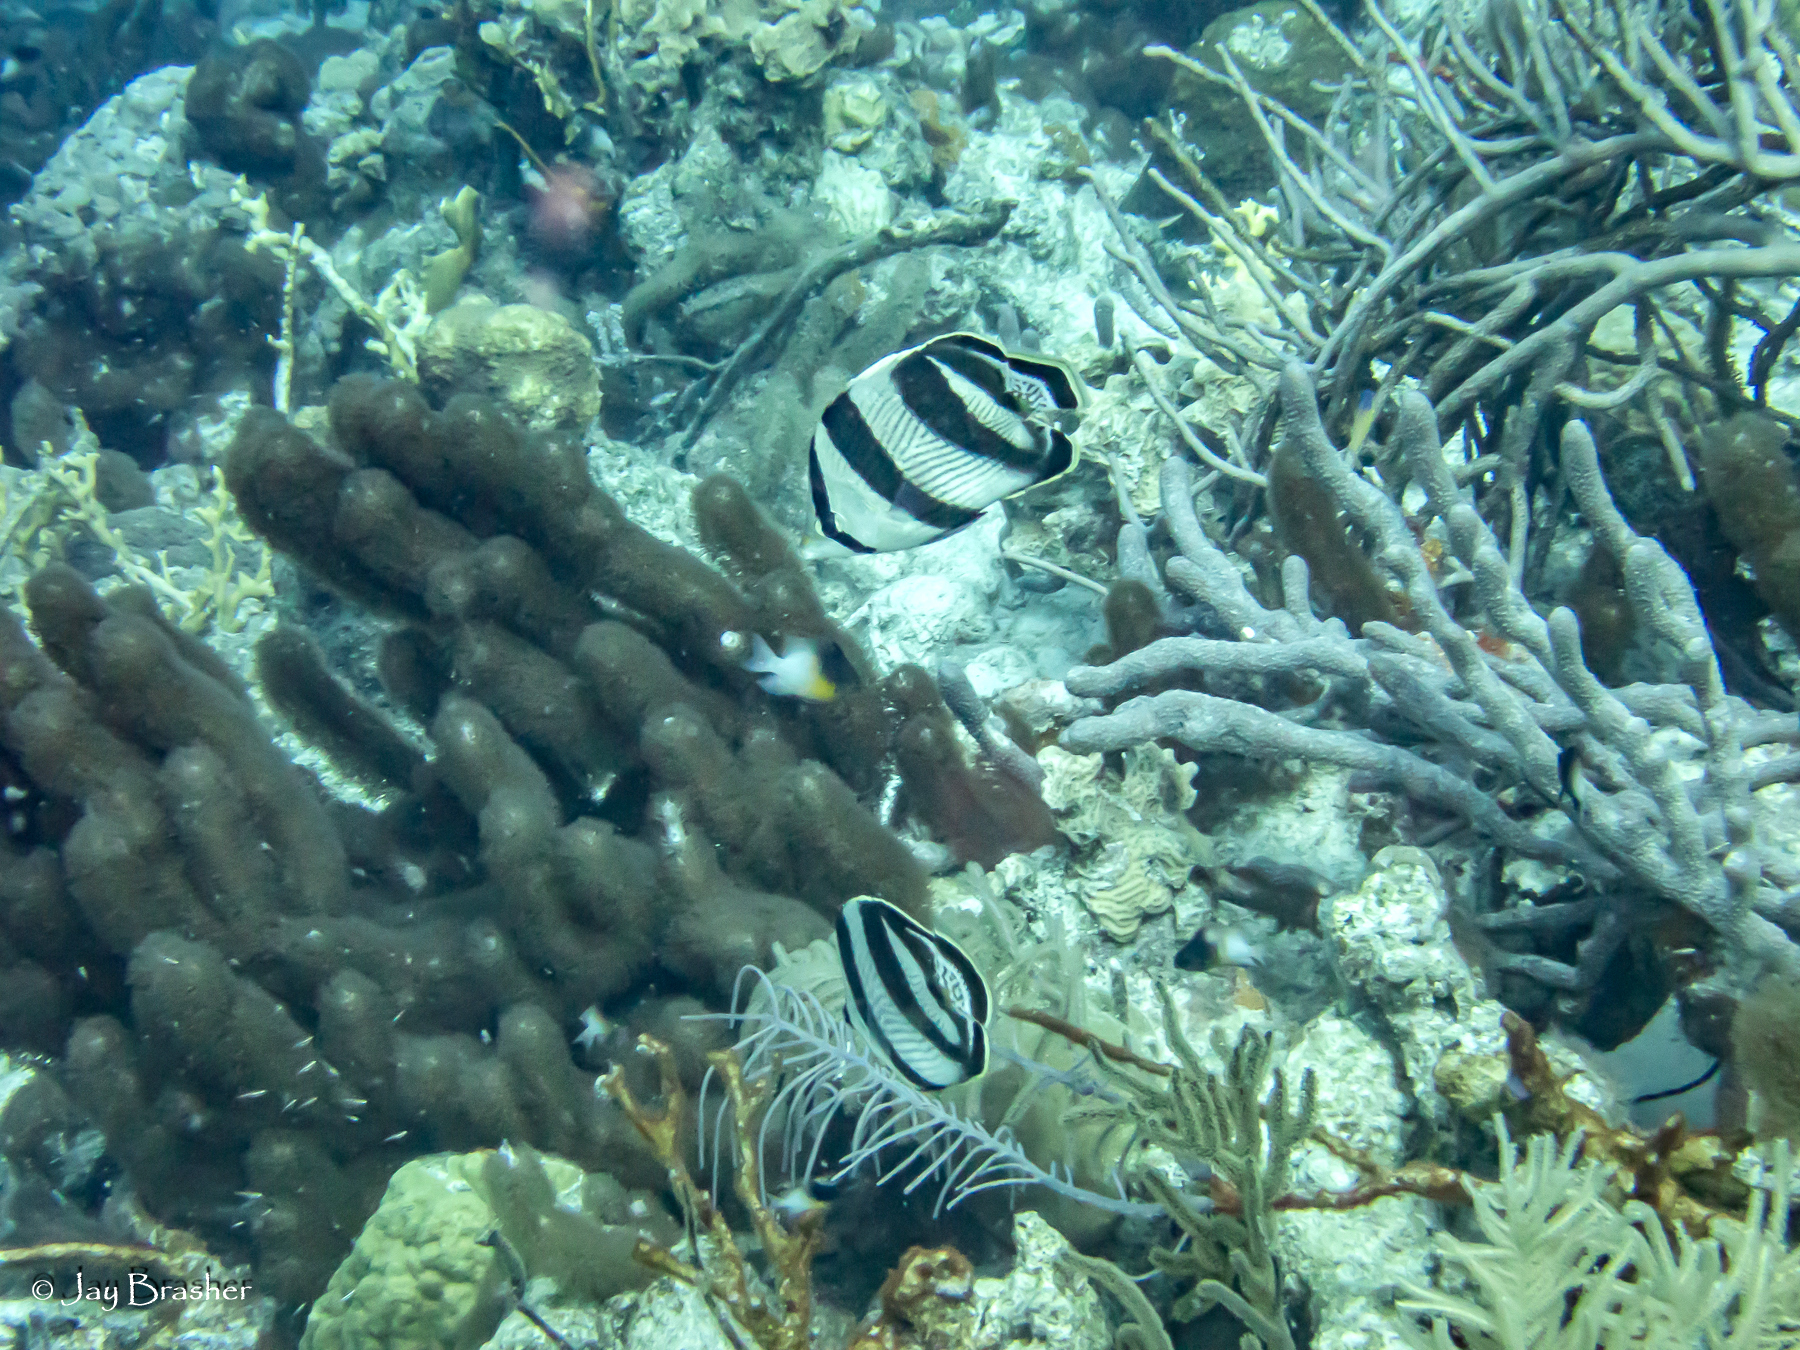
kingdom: Animalia
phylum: Chordata
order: Perciformes
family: Chaetodontidae
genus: Chaetodon
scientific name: Chaetodon striatus
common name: Banded butterflyfish
